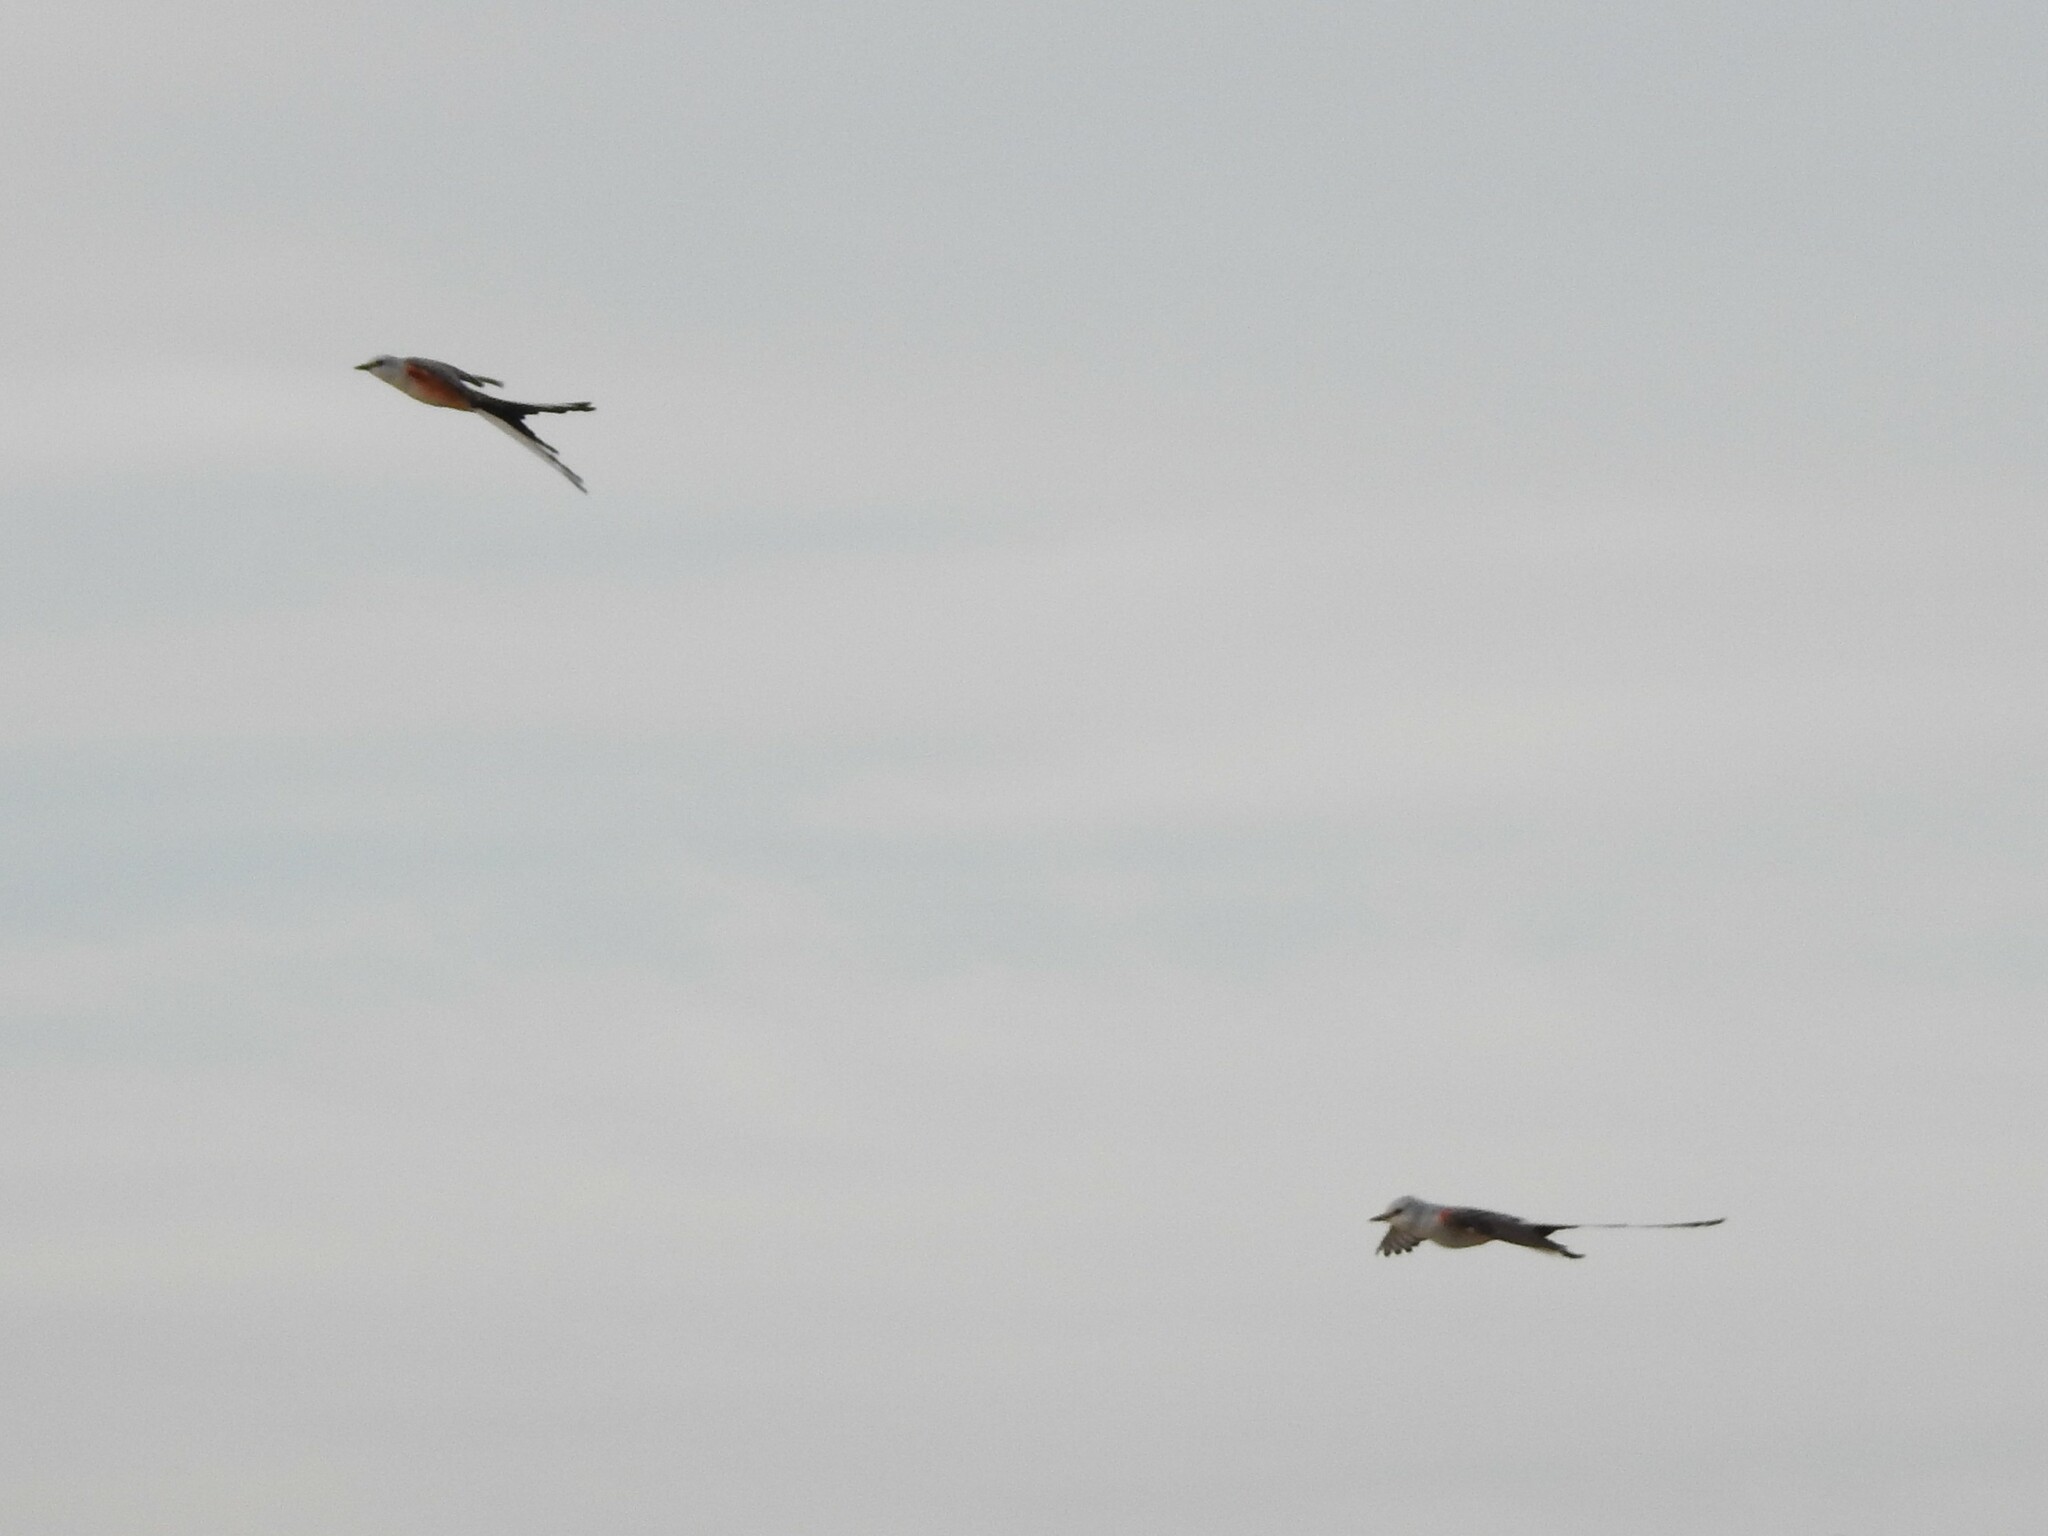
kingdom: Animalia
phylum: Chordata
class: Aves
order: Passeriformes
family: Tyrannidae
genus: Tyrannus
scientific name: Tyrannus forficatus
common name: Scissor-tailed flycatcher
